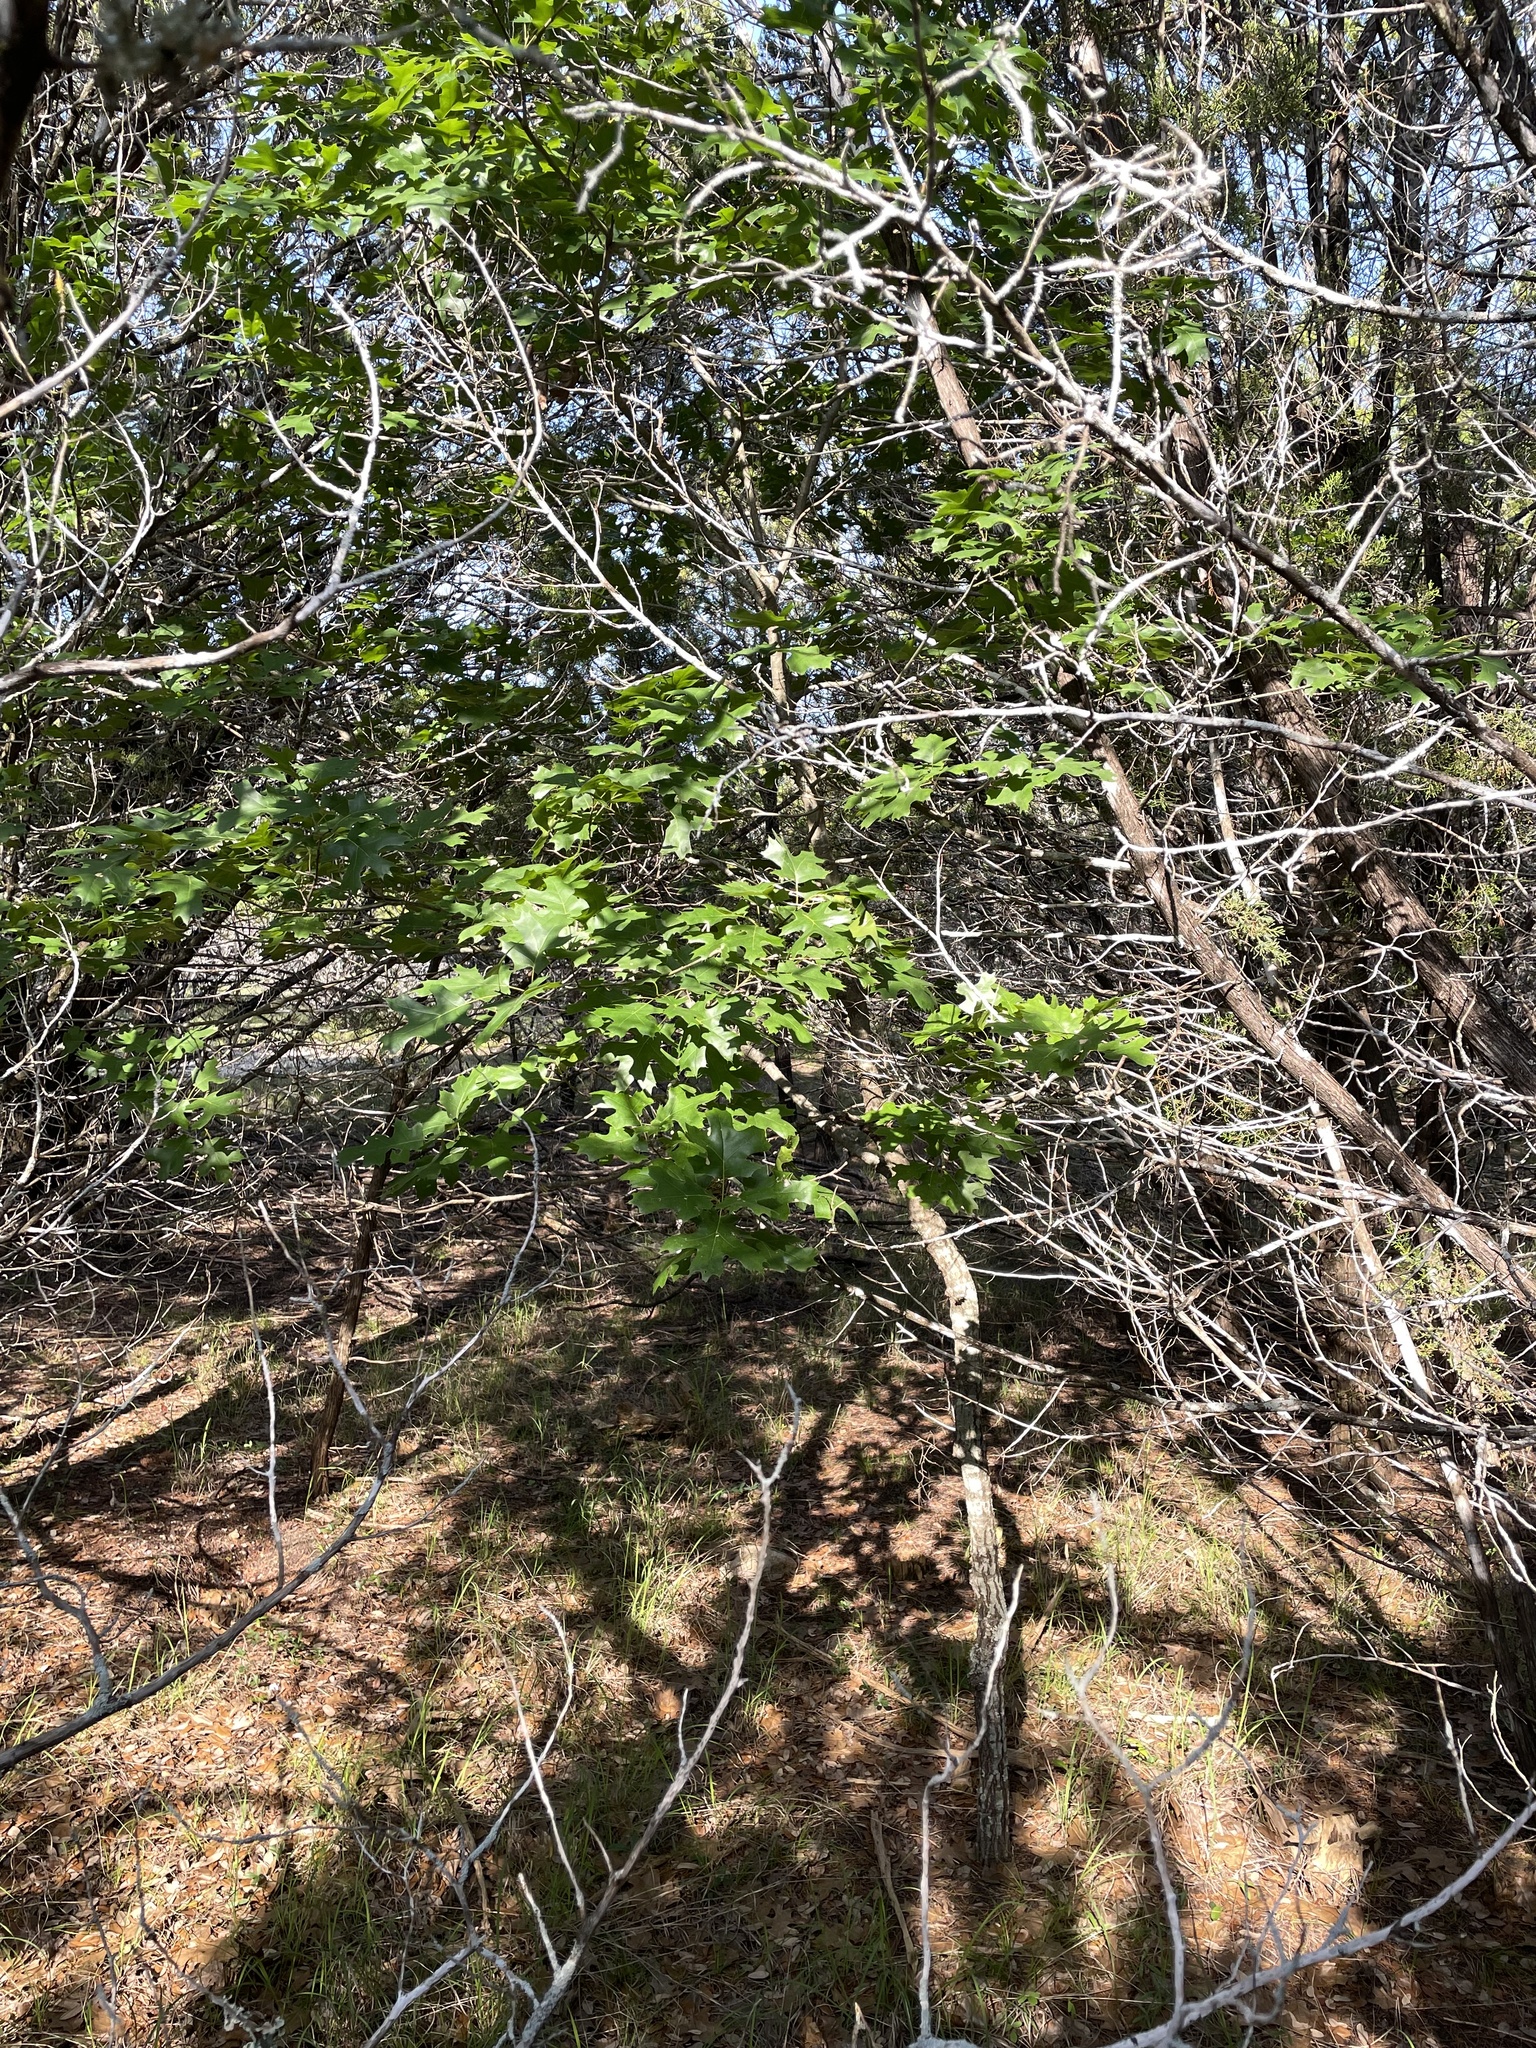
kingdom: Plantae
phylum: Tracheophyta
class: Magnoliopsida
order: Fagales
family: Fagaceae
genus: Quercus
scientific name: Quercus buckleyi
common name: Buckley oak
